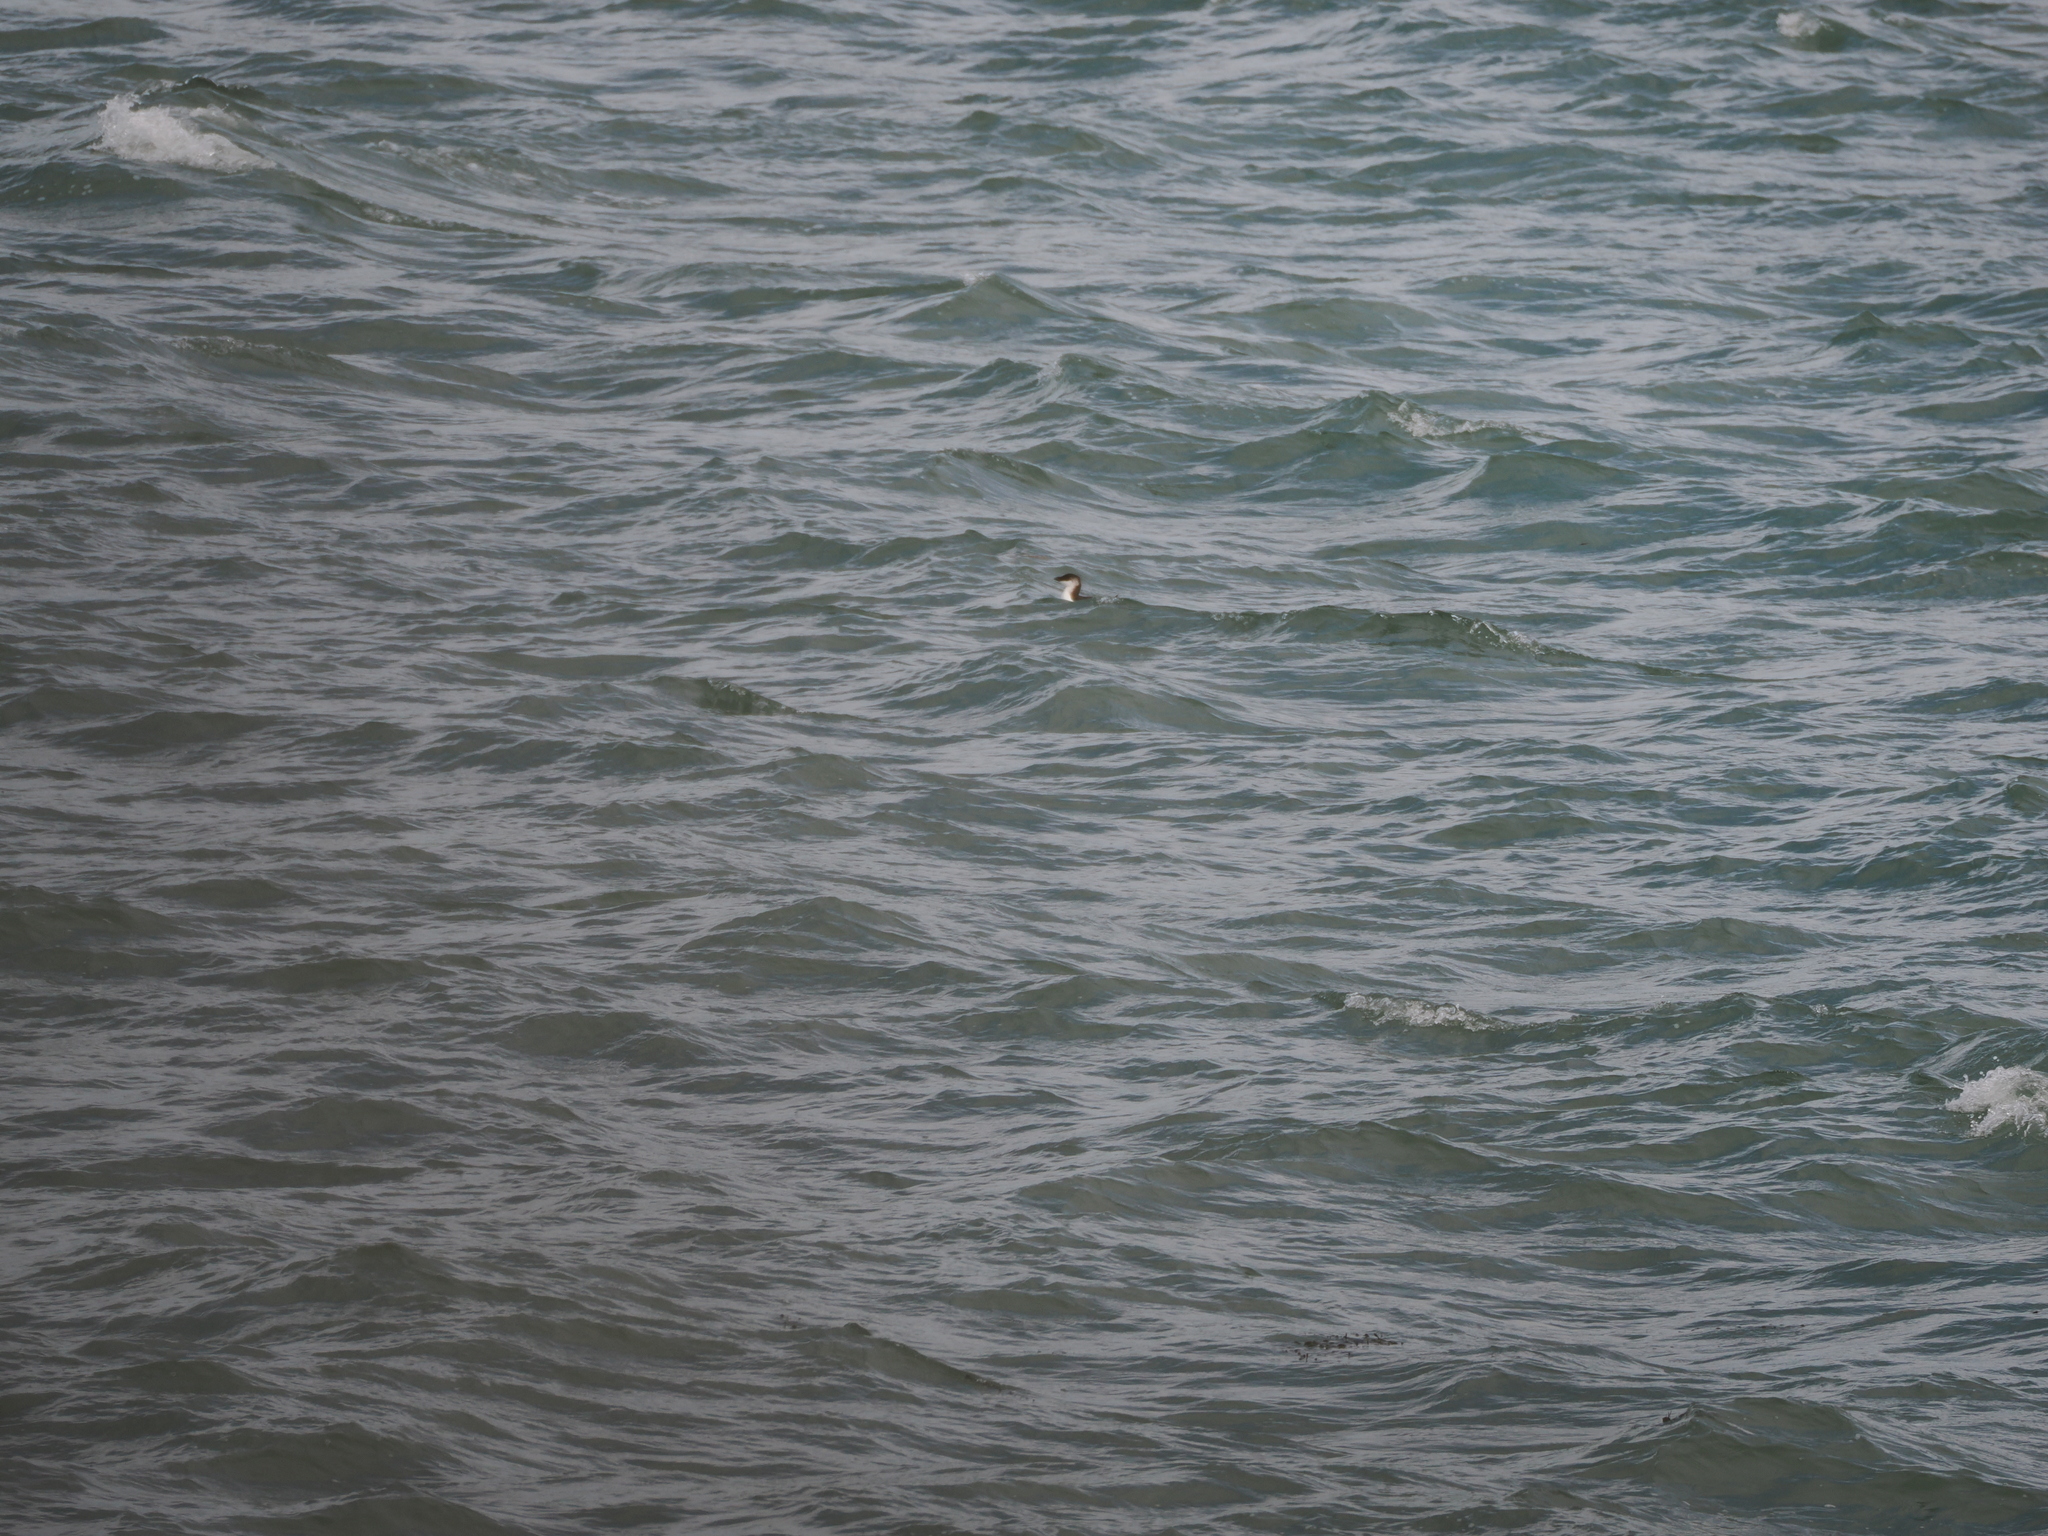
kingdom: Animalia
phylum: Chordata
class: Aves
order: Charadriiformes
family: Alcidae
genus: Alca
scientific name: Alca torda
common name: Razorbill
